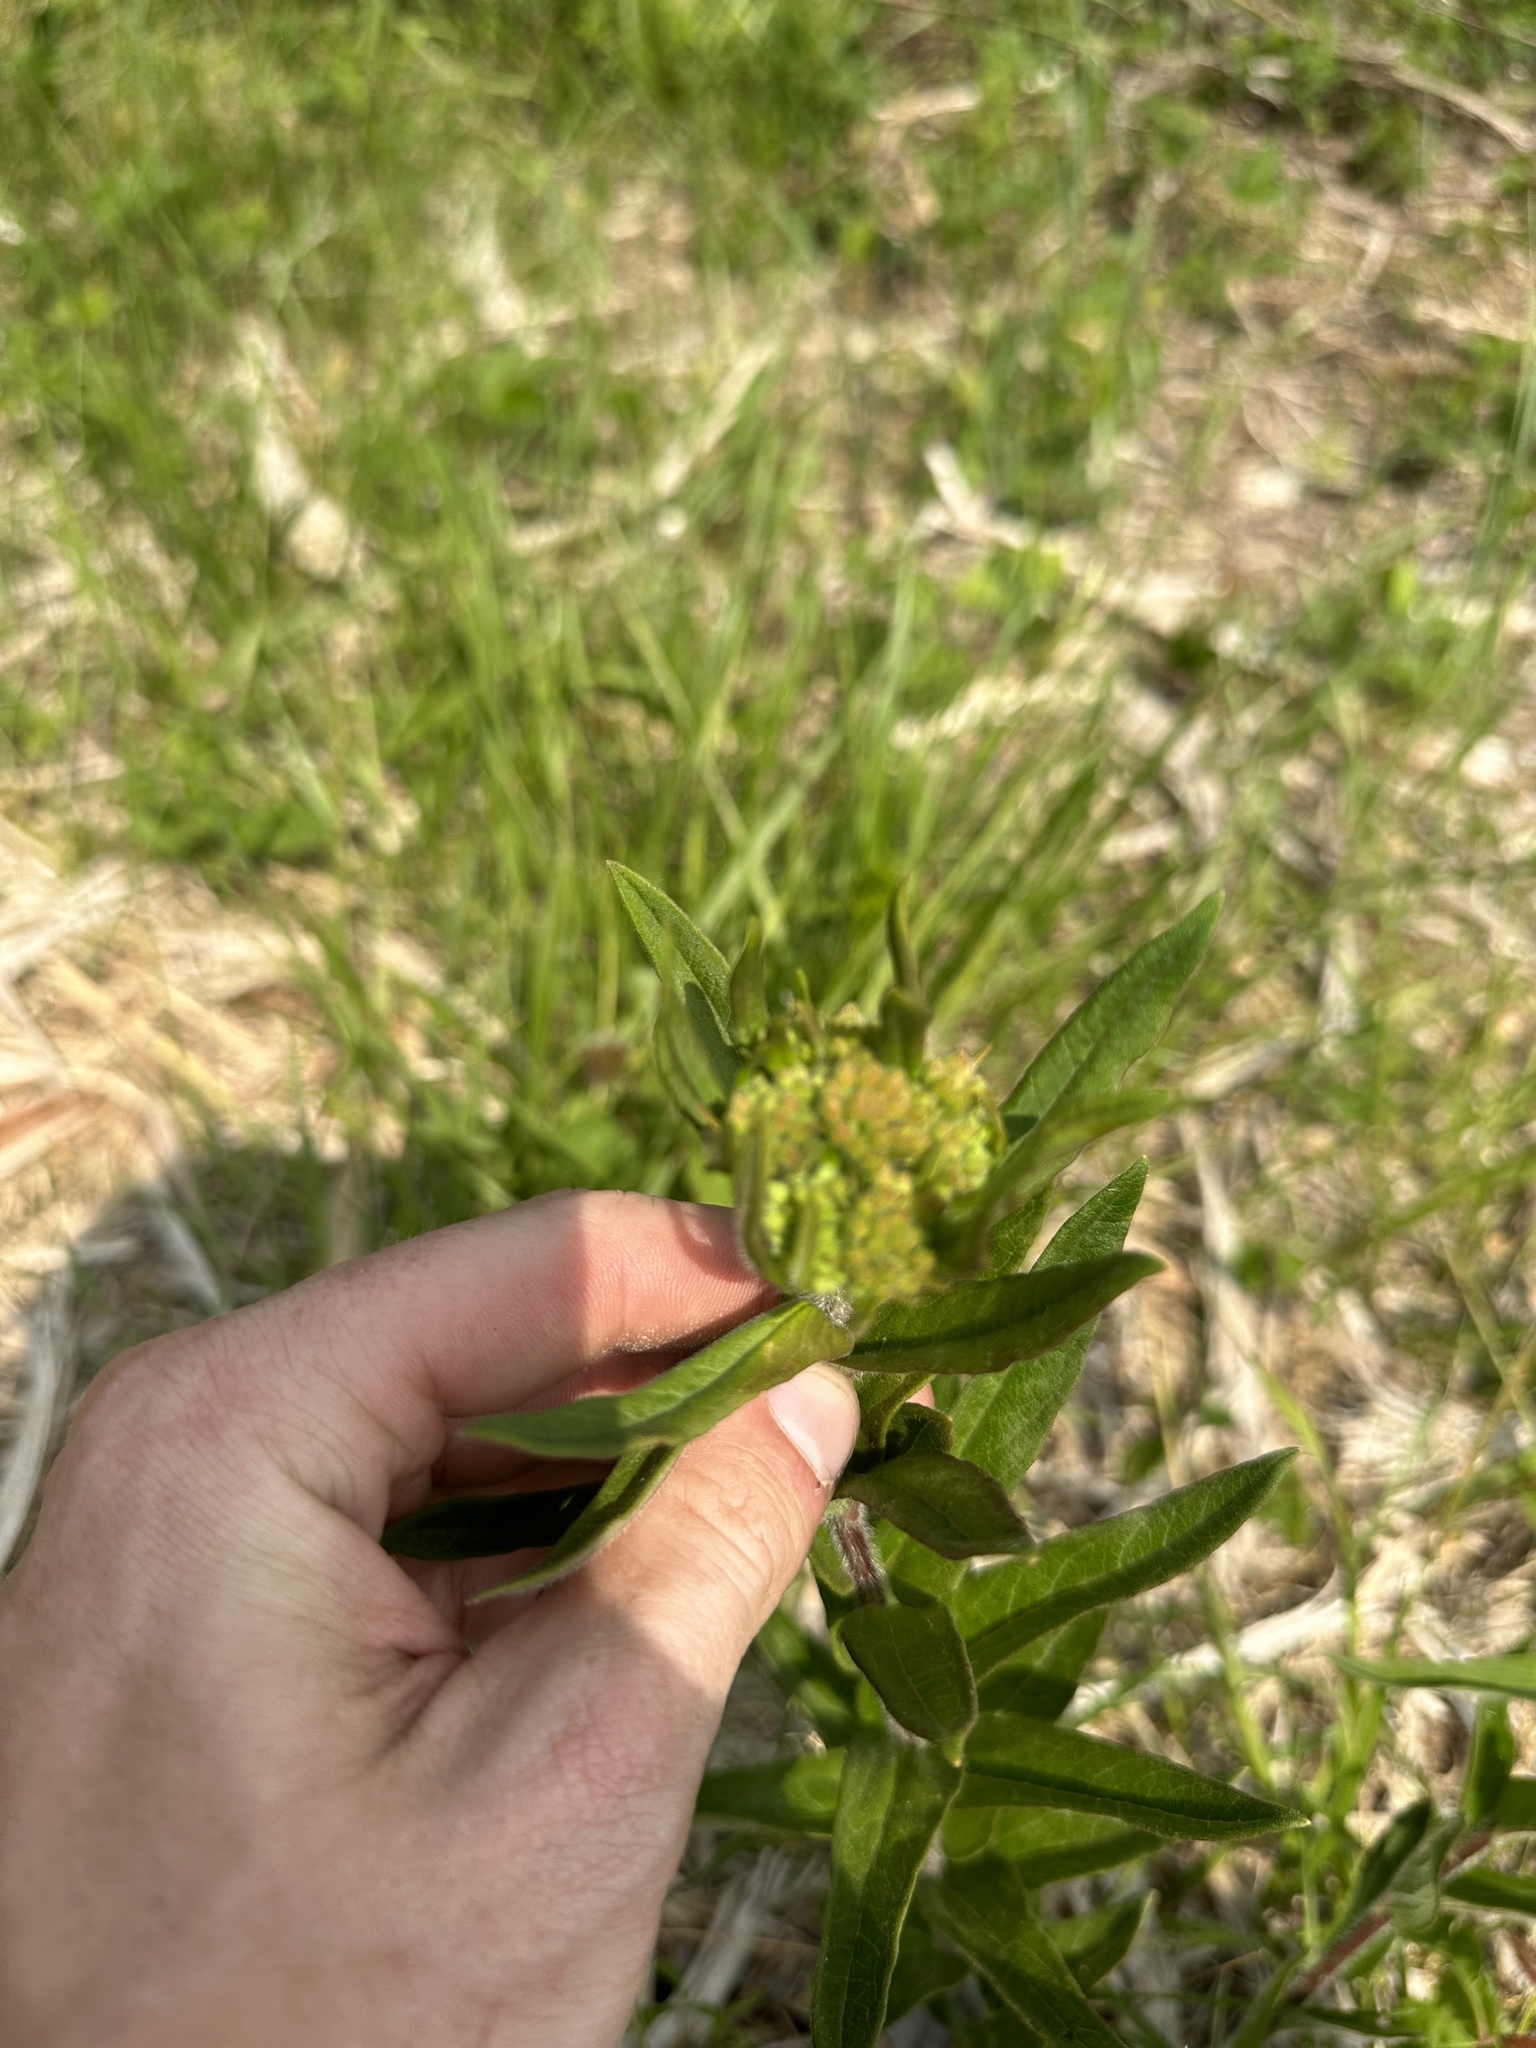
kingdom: Plantae
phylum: Tracheophyta
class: Magnoliopsida
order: Gentianales
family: Apocynaceae
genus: Asclepias
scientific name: Asclepias tuberosa
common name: Butterfly milkweed
